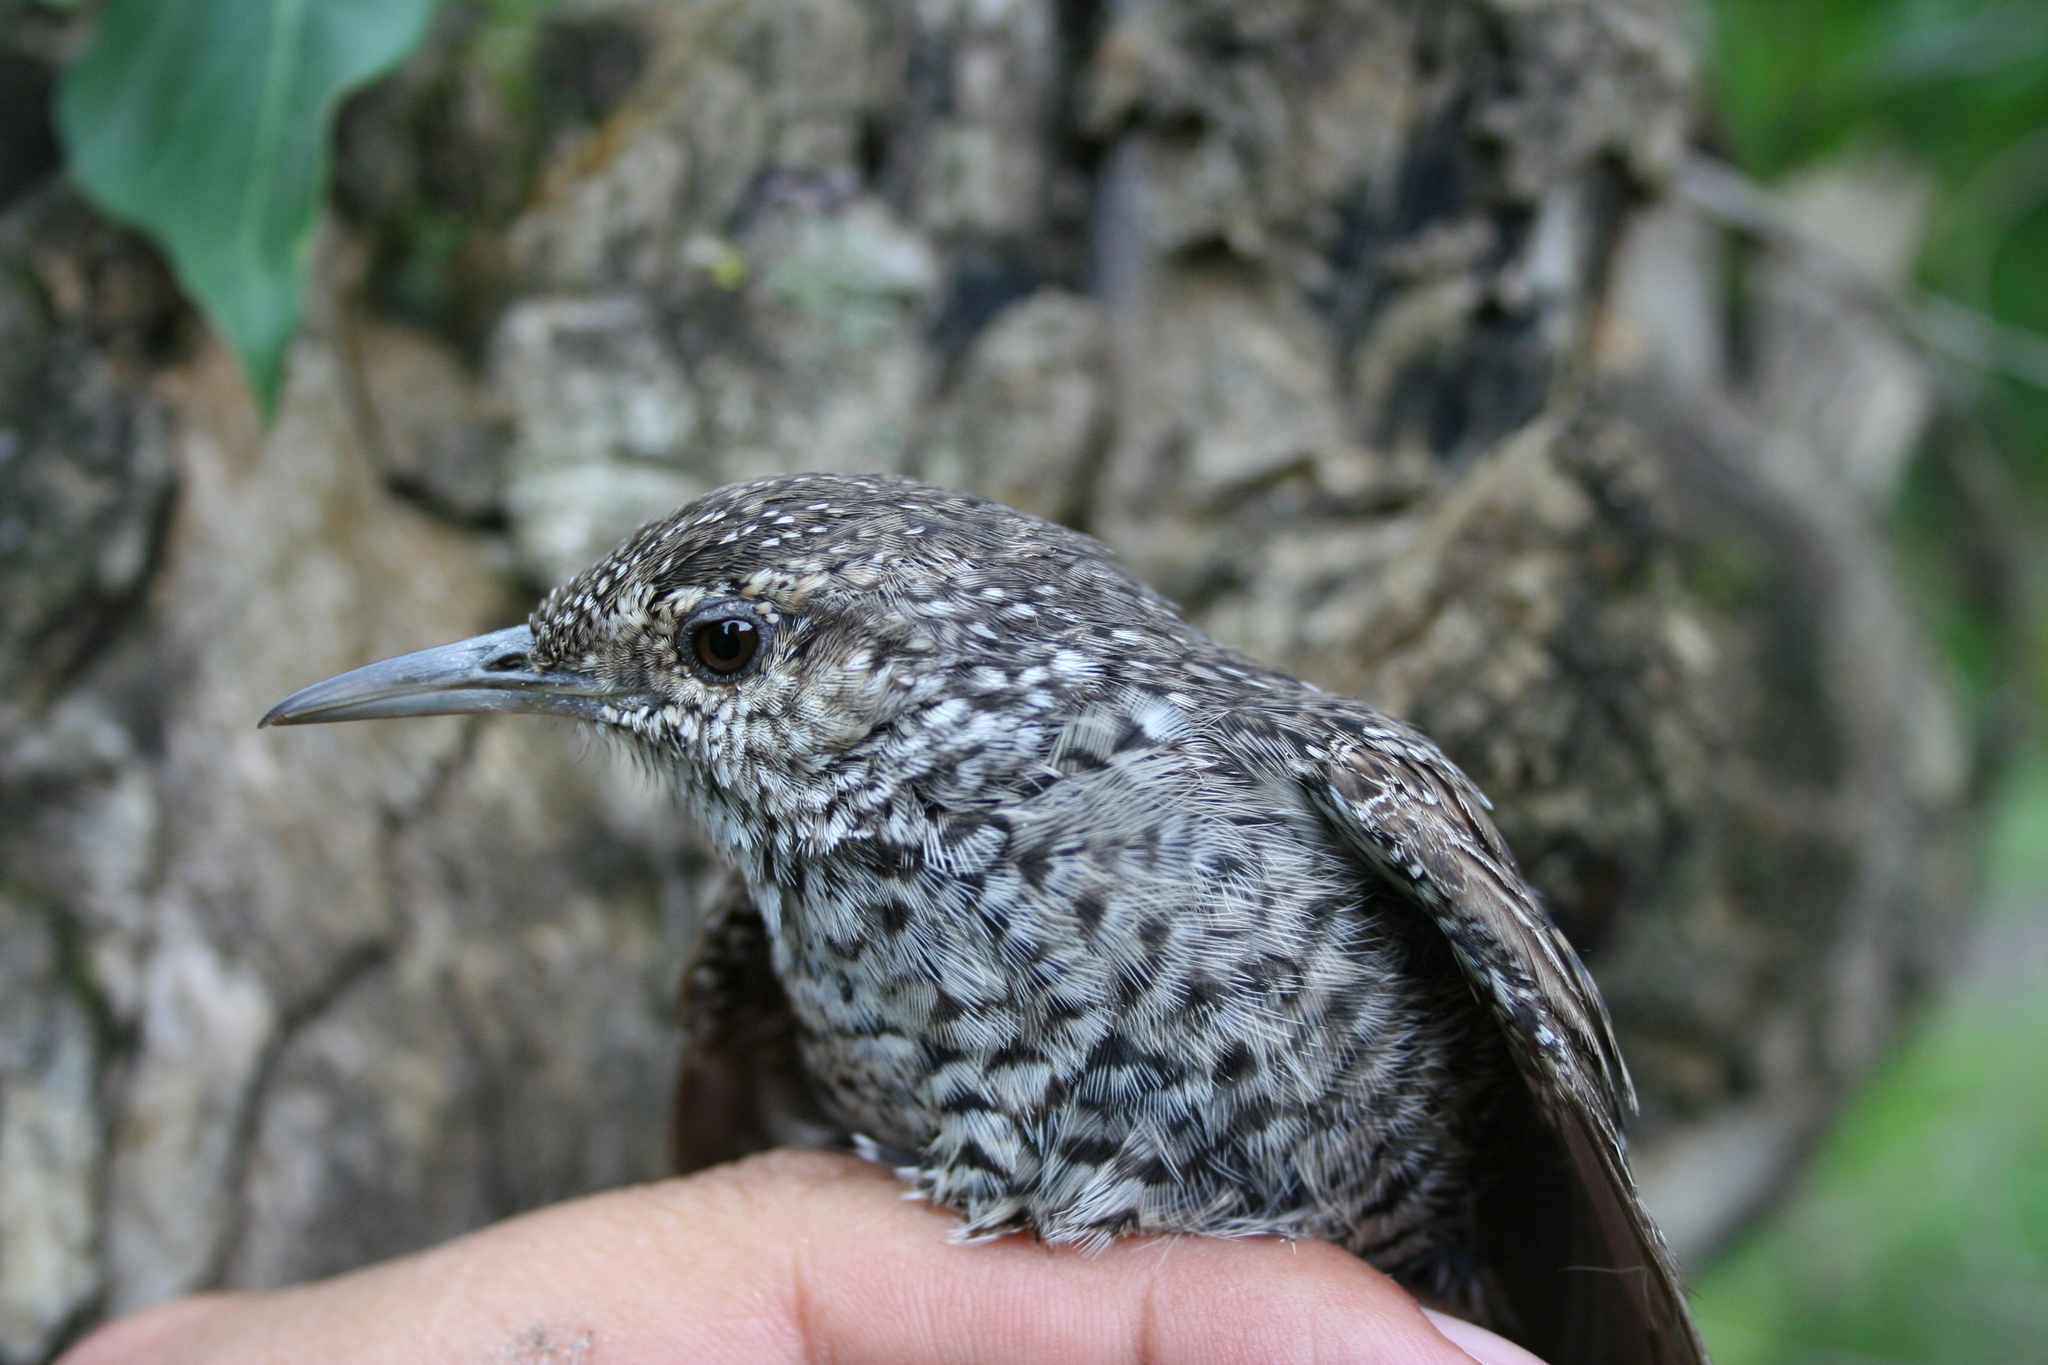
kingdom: Animalia
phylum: Chordata
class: Aves
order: Passeriformes
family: Troglodytidae
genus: Salpinctes
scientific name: Salpinctes obsoletus
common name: Rock wren
